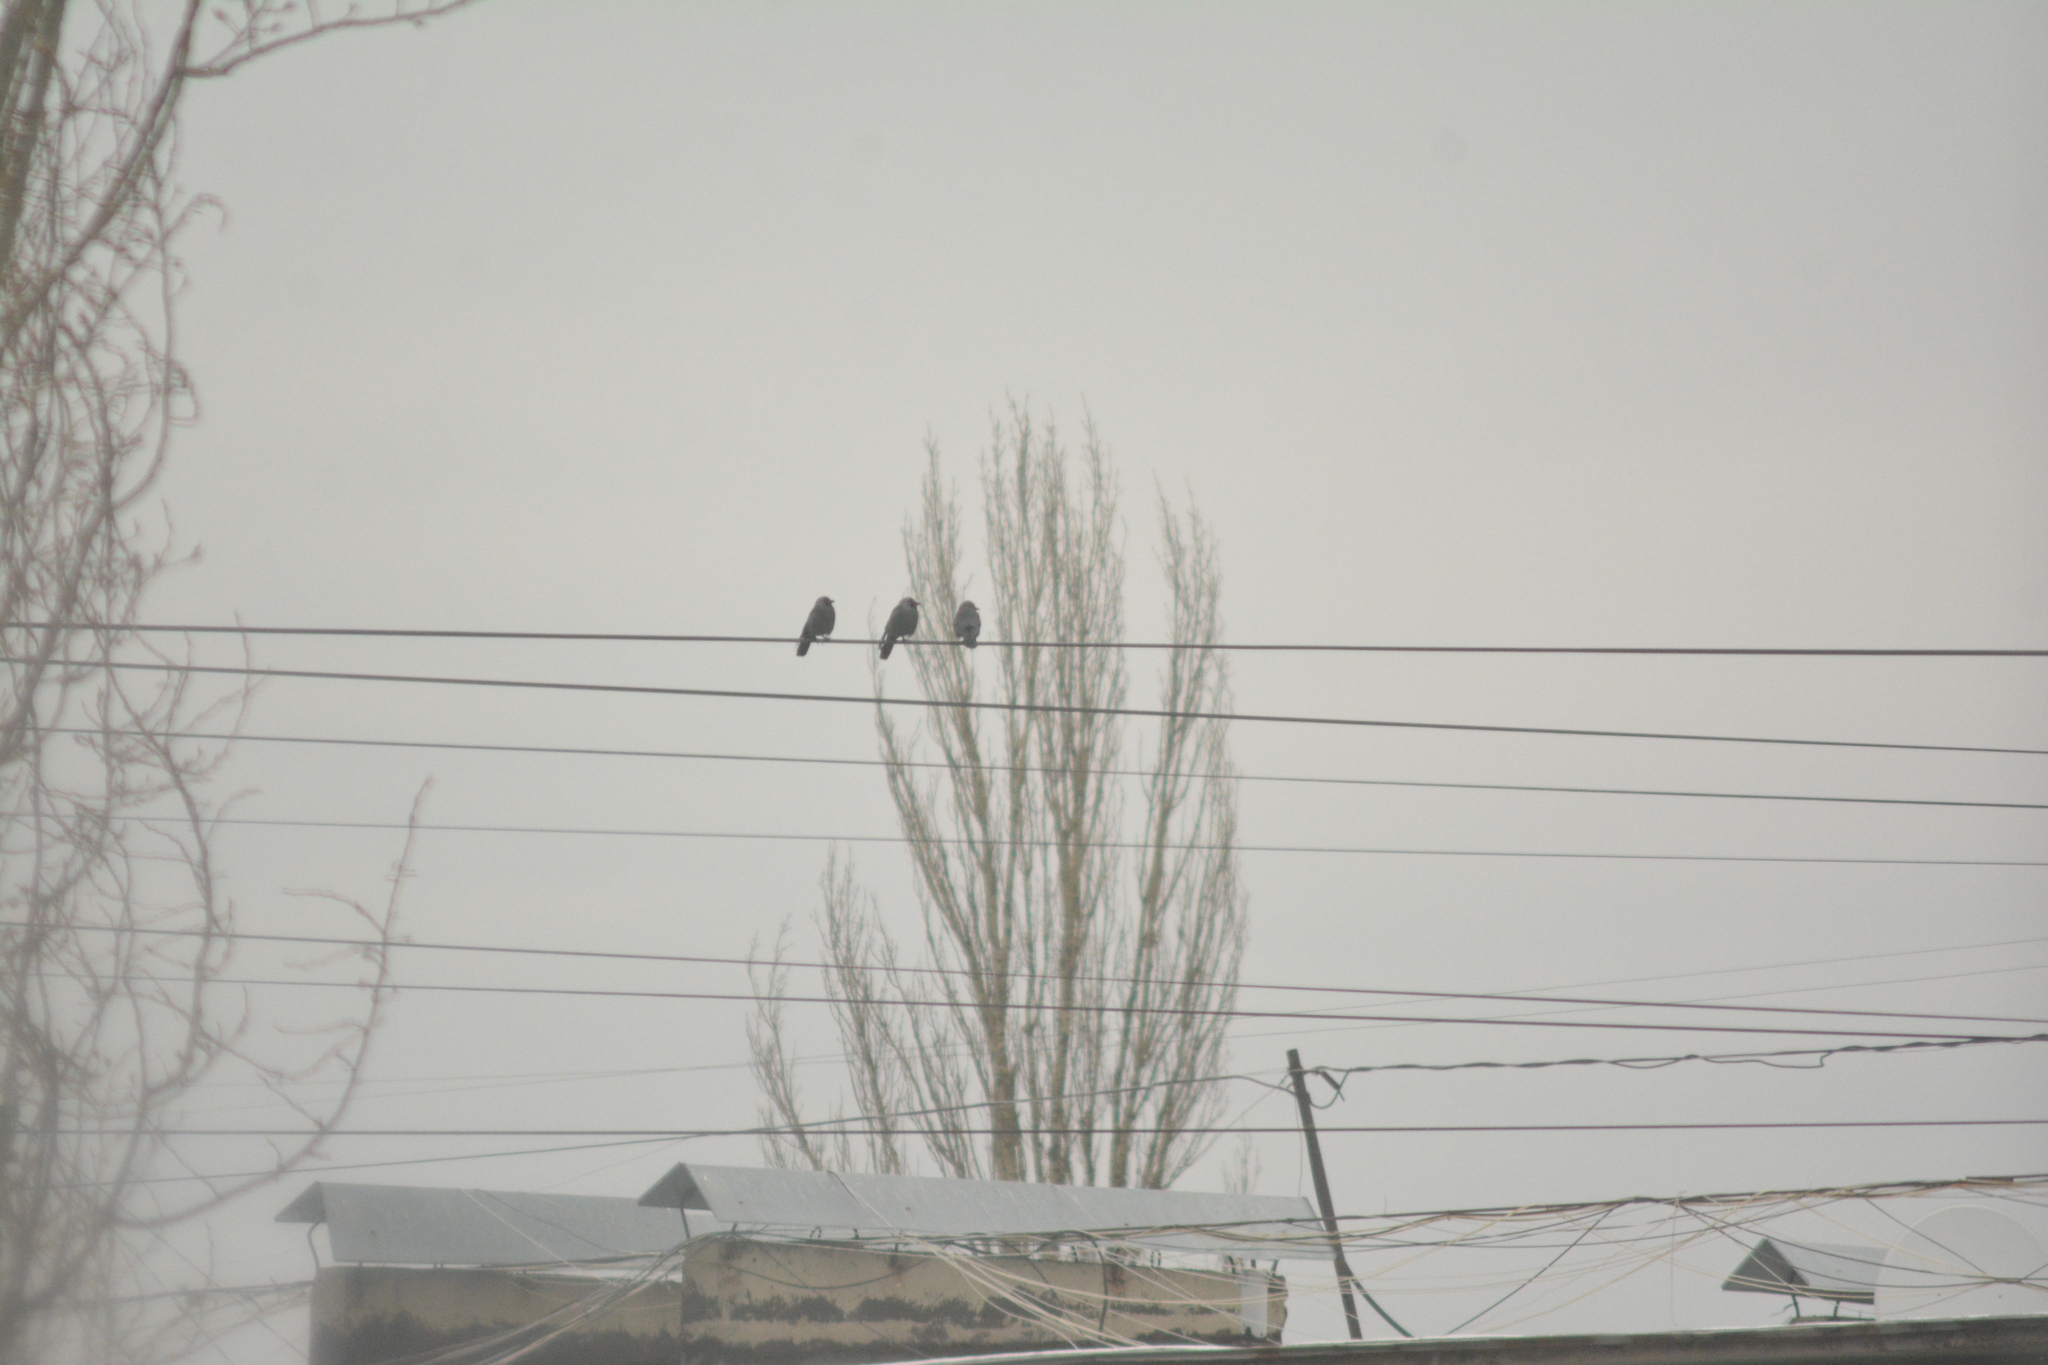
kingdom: Animalia
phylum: Chordata
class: Aves
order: Passeriformes
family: Corvidae
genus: Coloeus
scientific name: Coloeus monedula
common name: Western jackdaw
